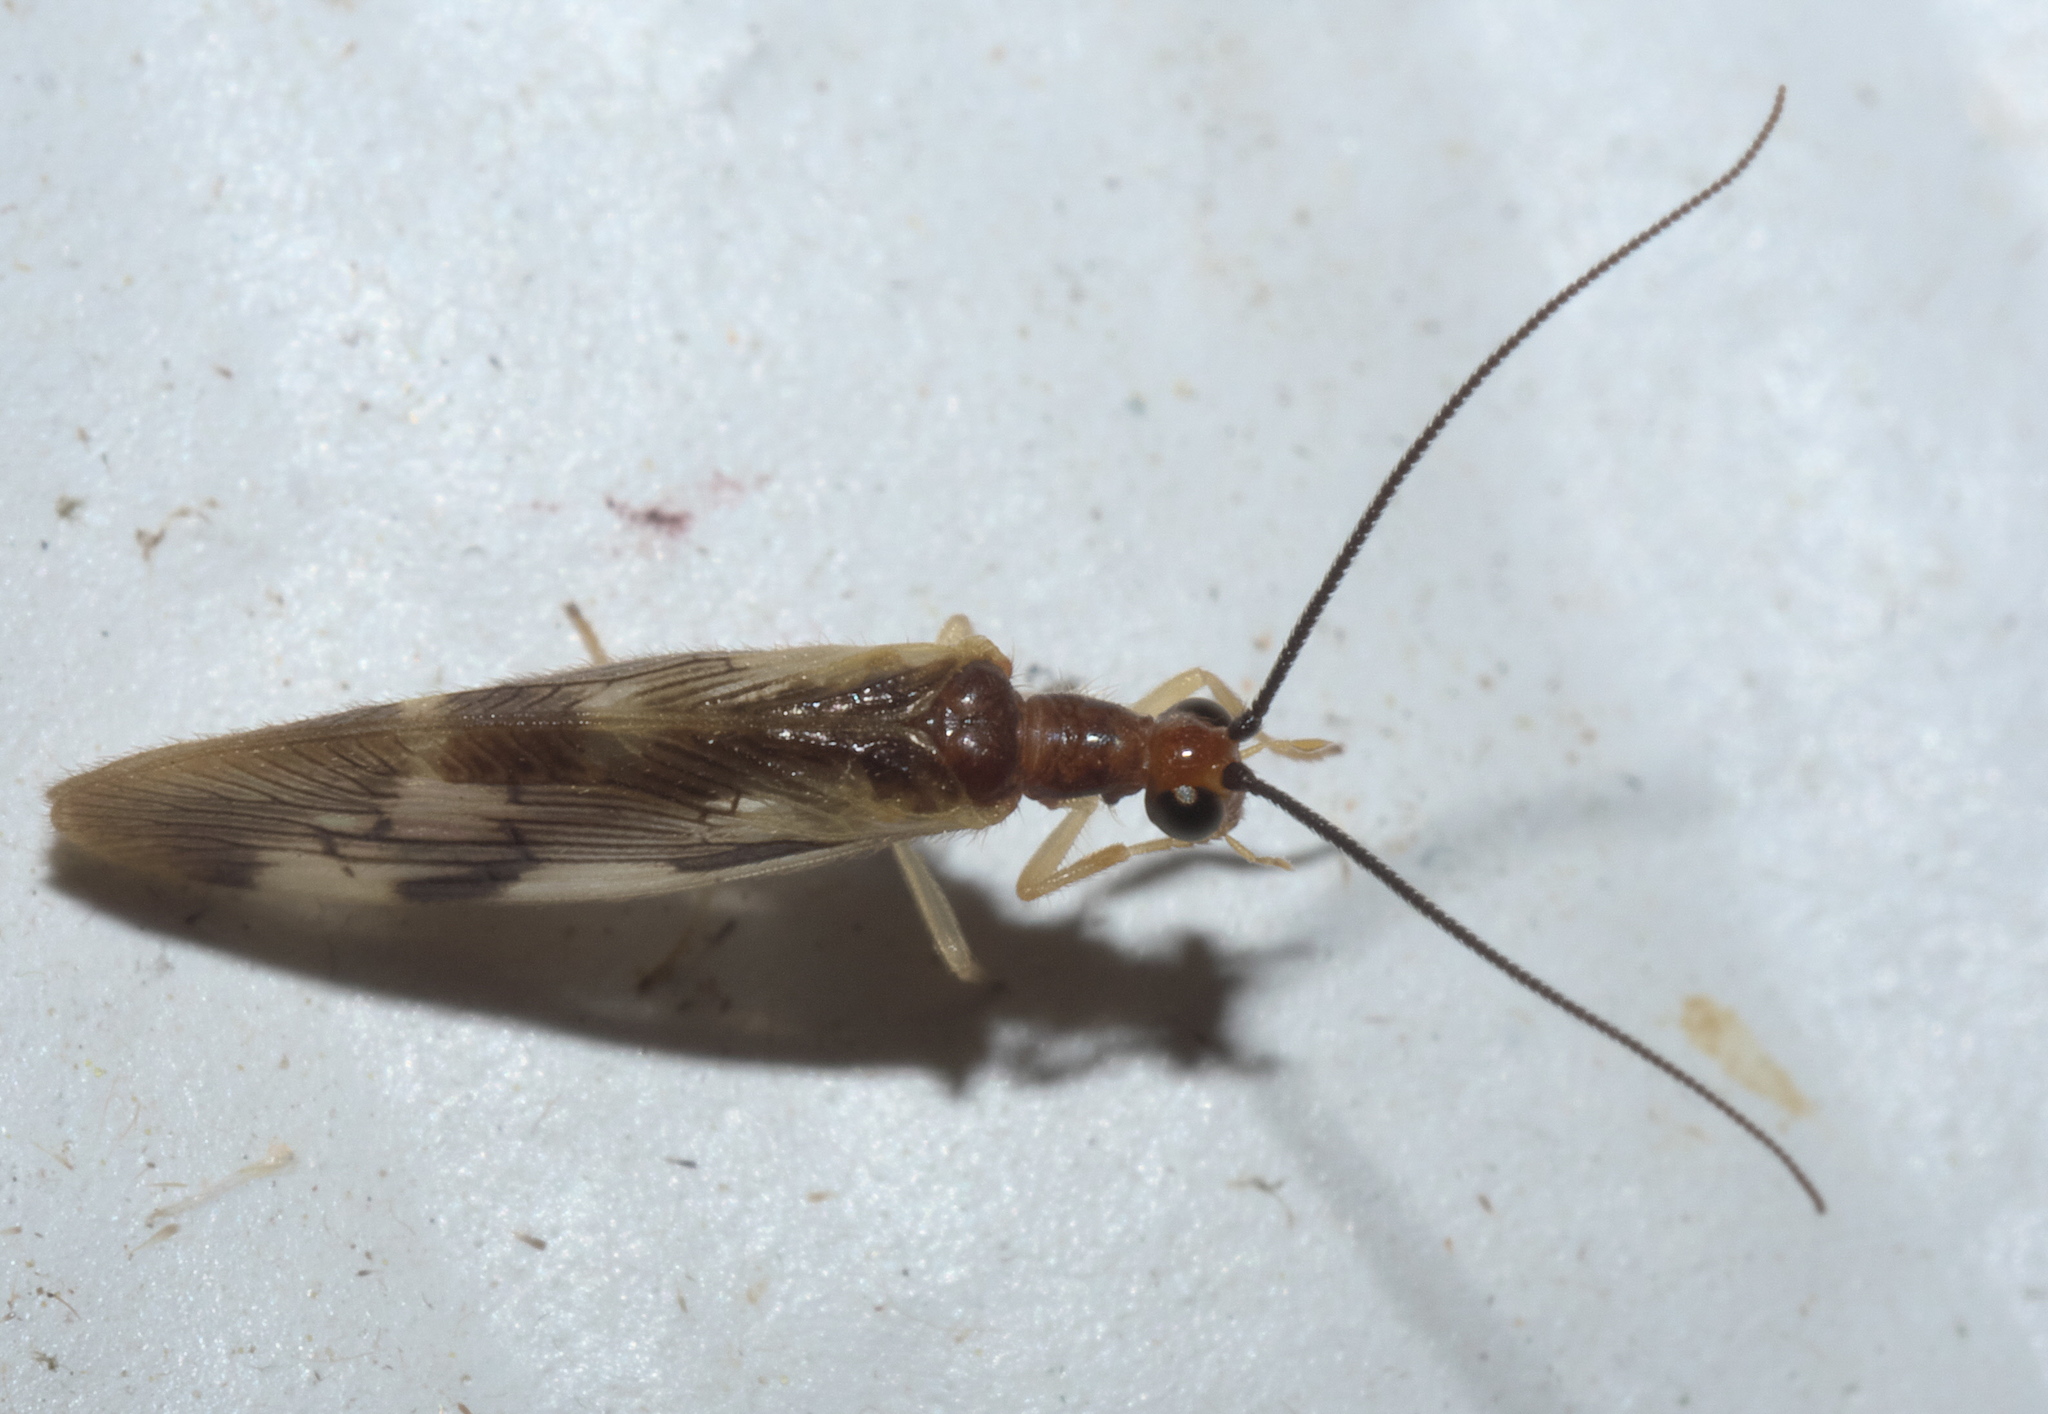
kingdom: Animalia
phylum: Arthropoda
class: Insecta
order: Neuroptera
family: Sisyridae
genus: Climacia
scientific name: Climacia areolaris
